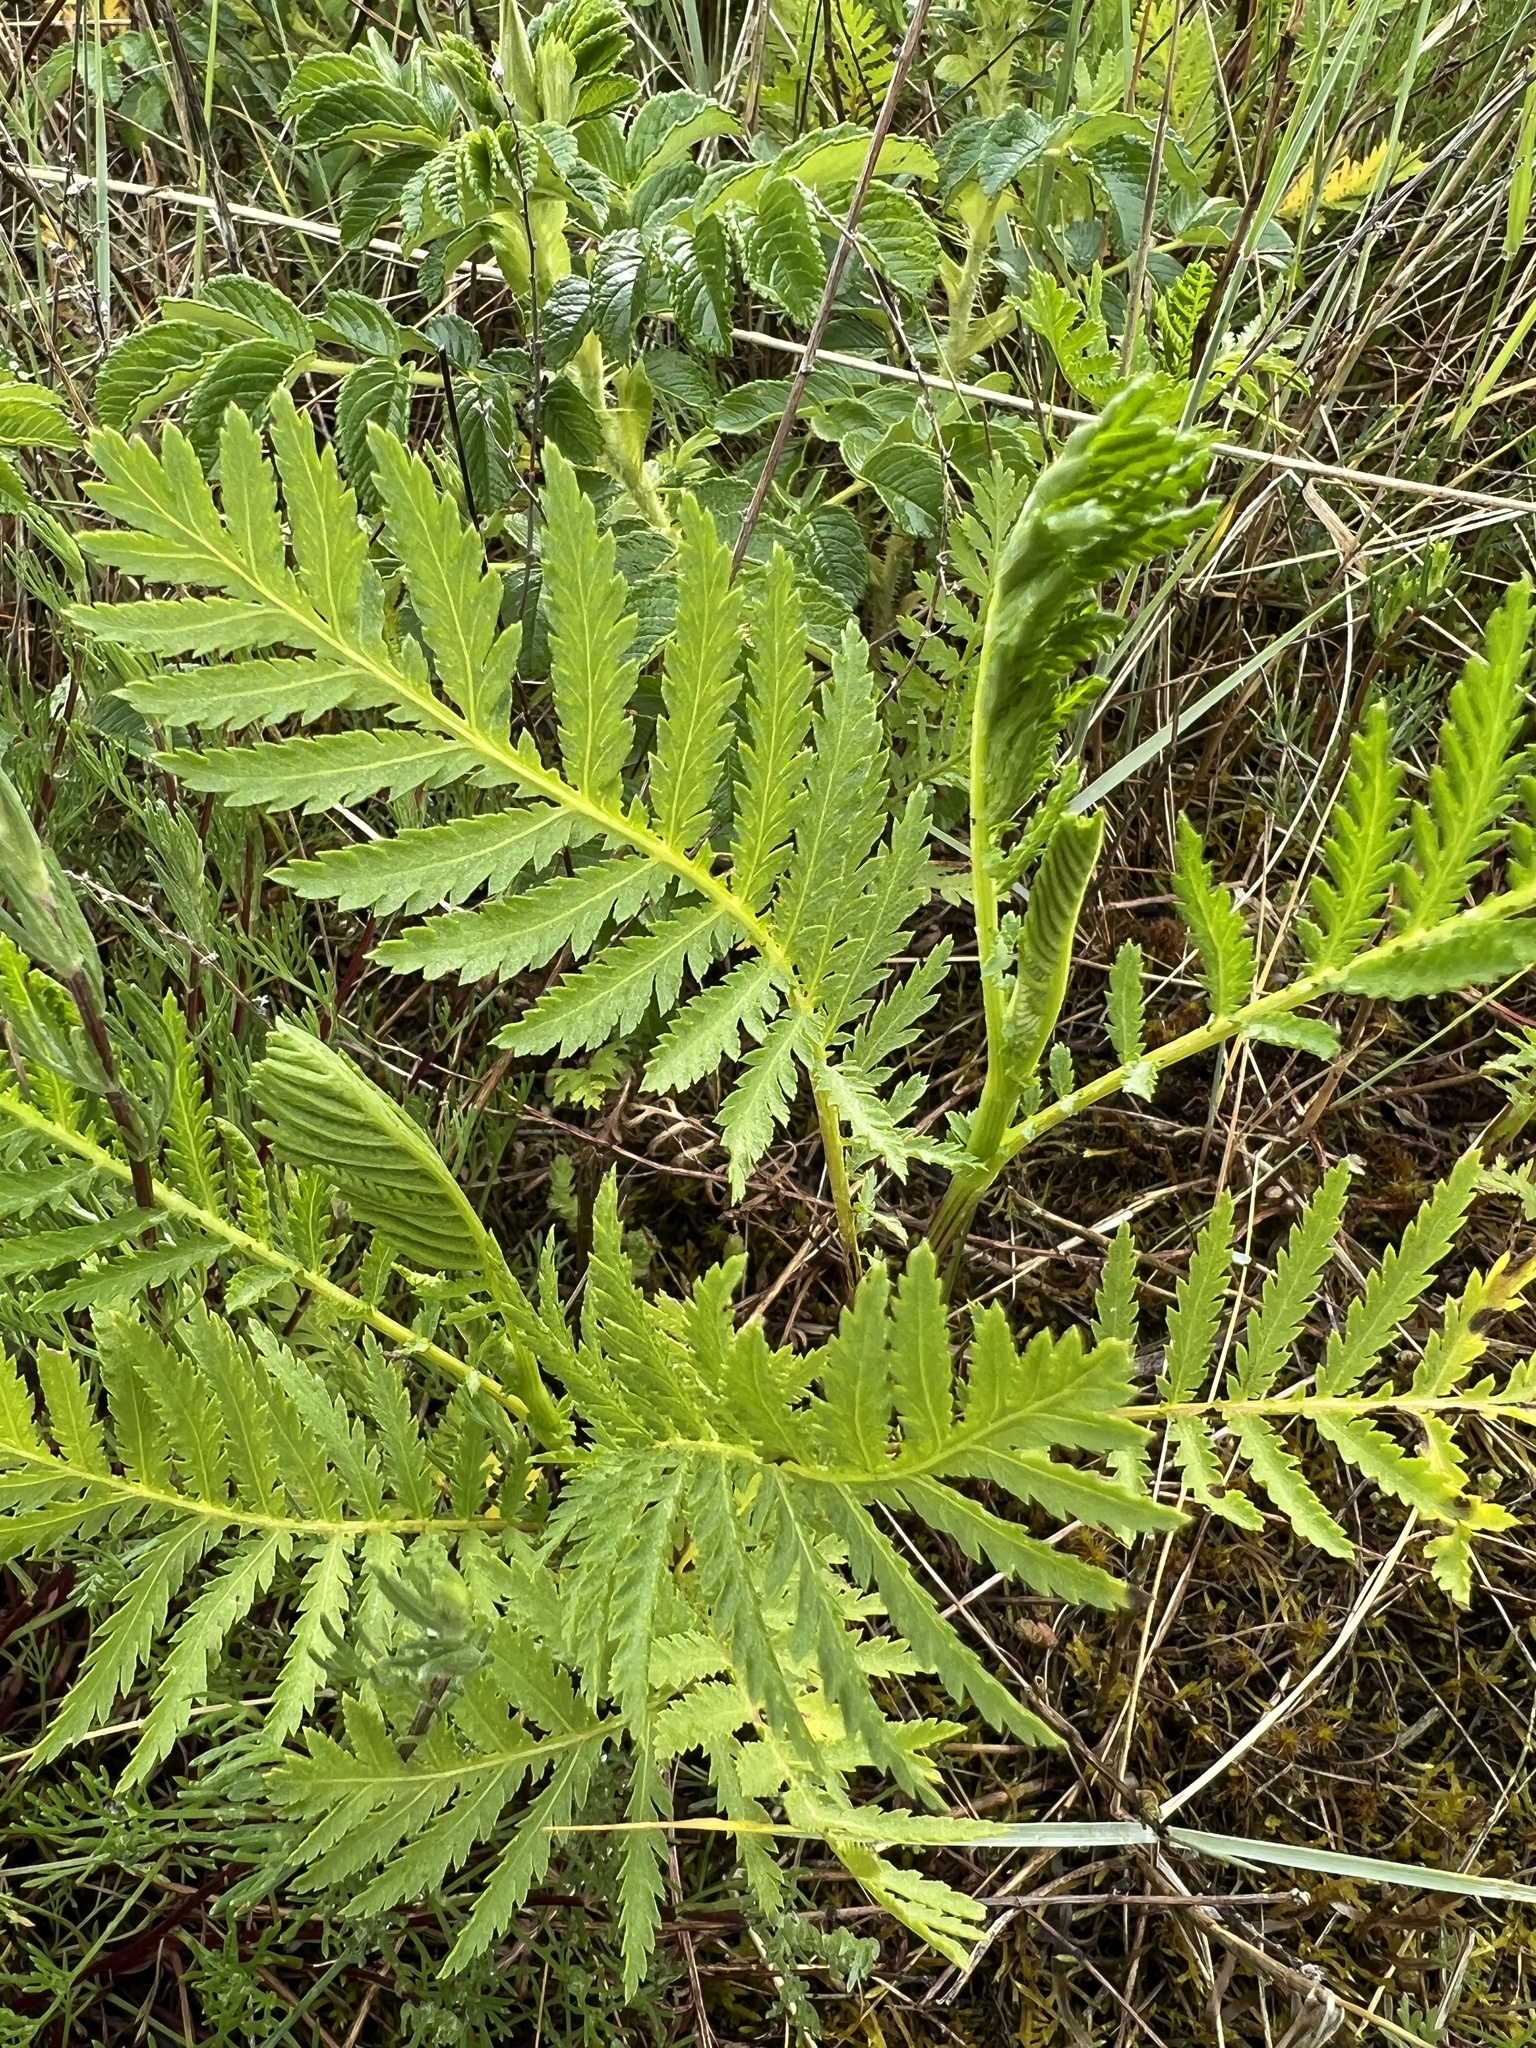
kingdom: Plantae
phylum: Tracheophyta
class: Magnoliopsida
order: Asterales
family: Asteraceae
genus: Tanacetum
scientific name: Tanacetum vulgare
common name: Common tansy
